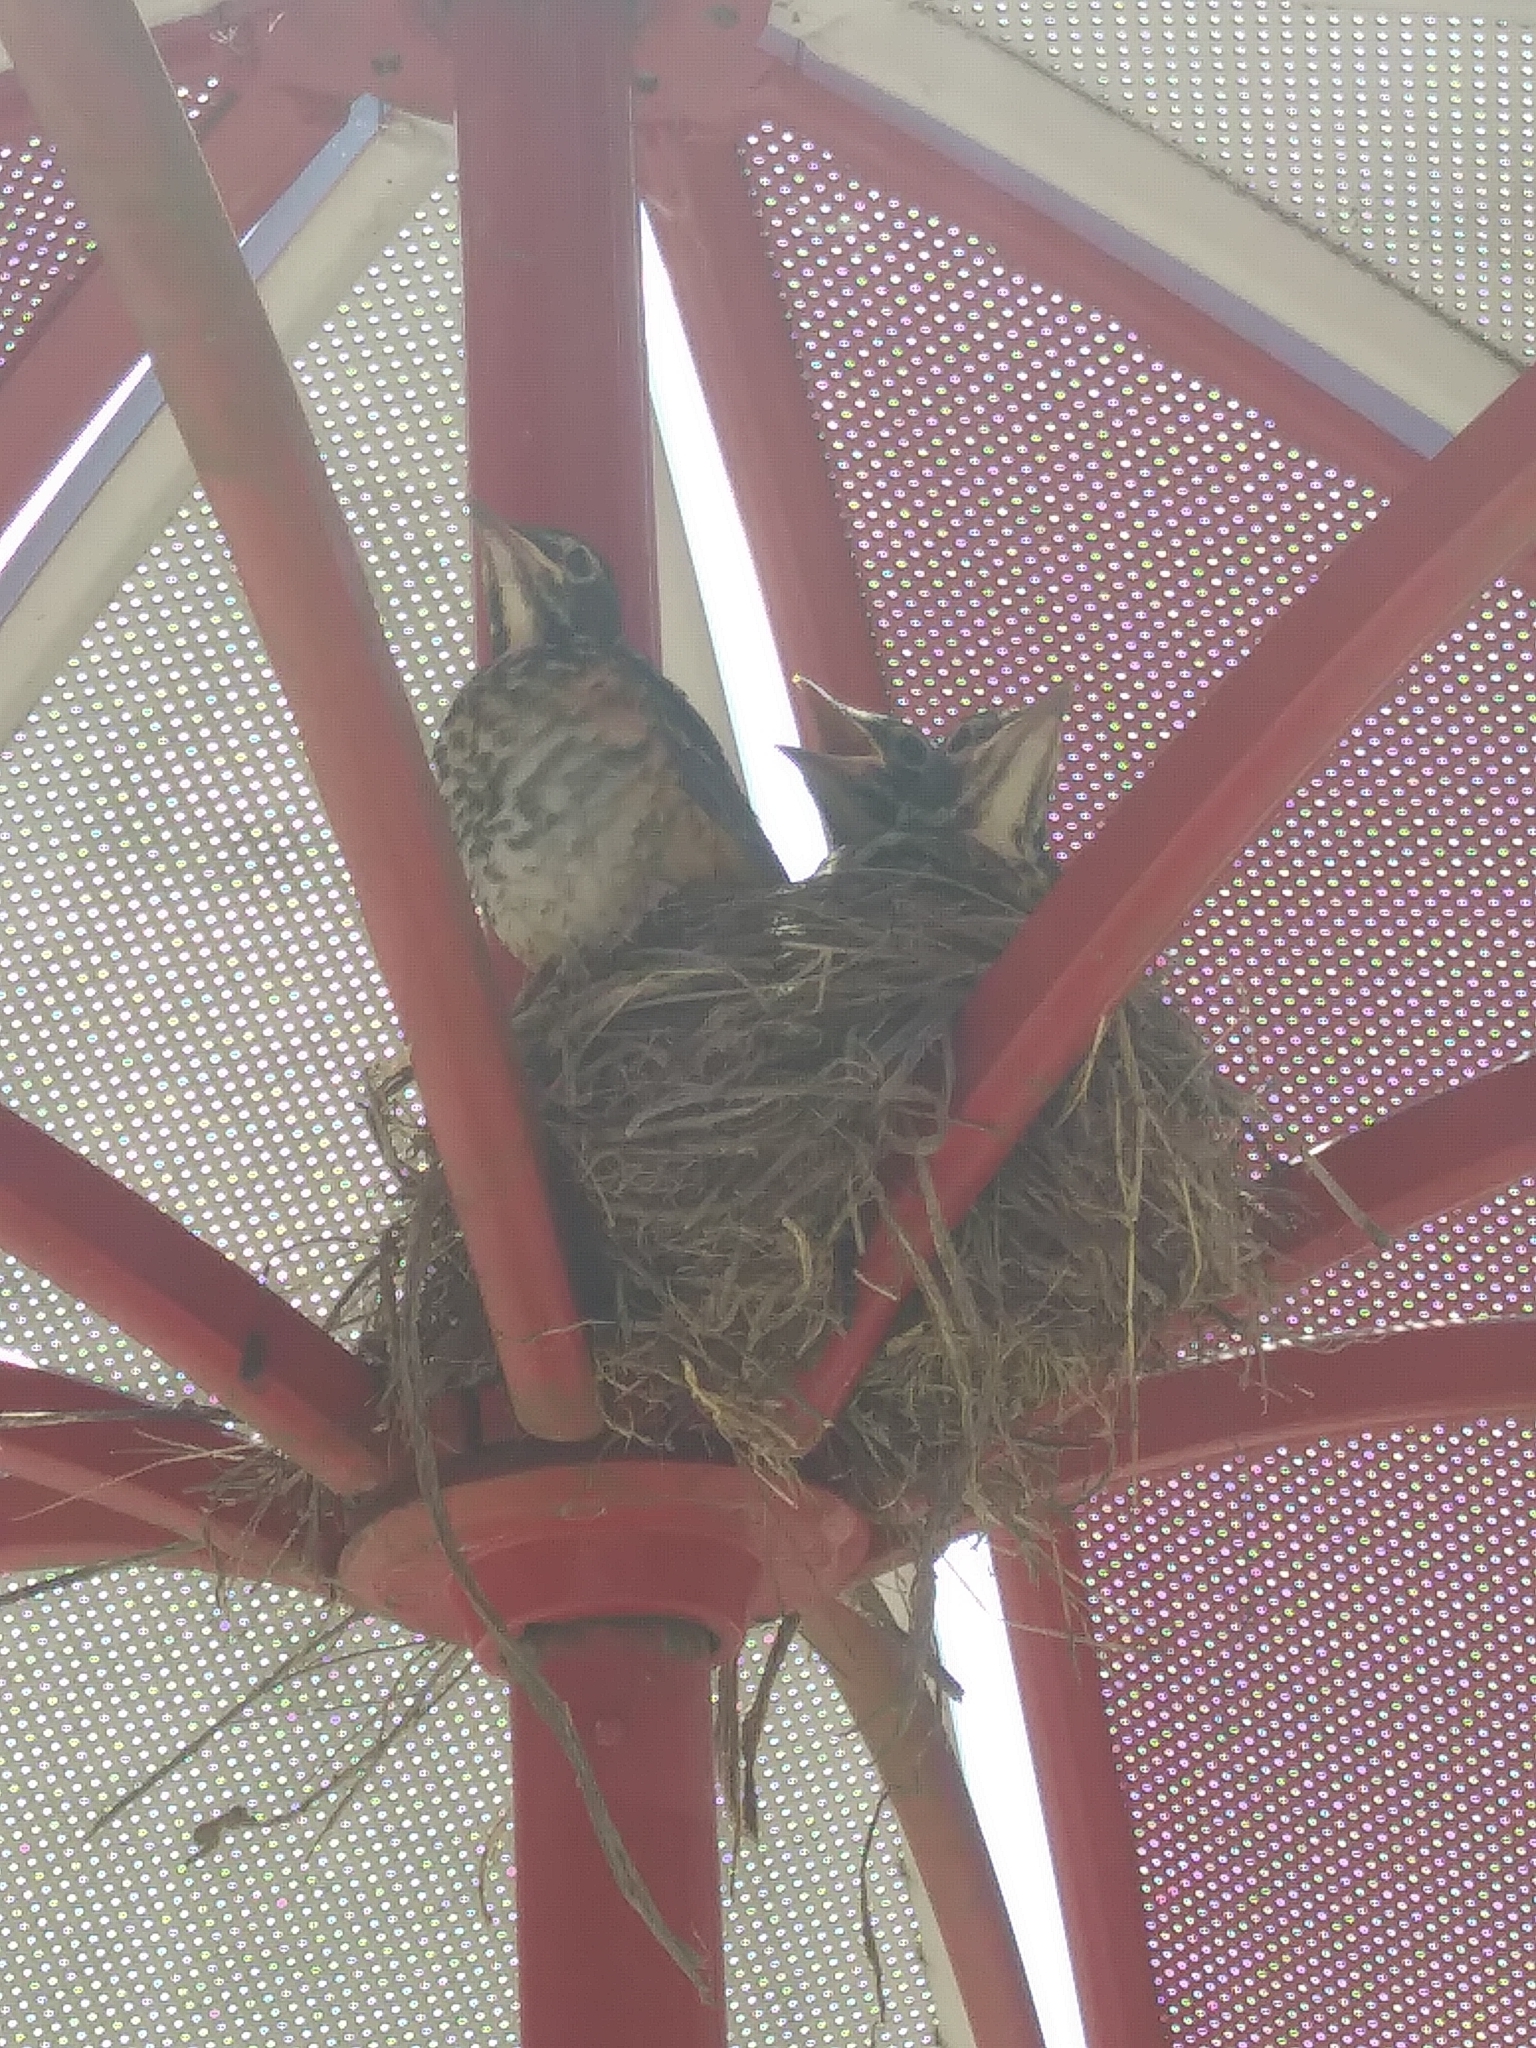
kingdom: Animalia
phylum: Chordata
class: Aves
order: Passeriformes
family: Turdidae
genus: Turdus
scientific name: Turdus migratorius
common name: American robin
